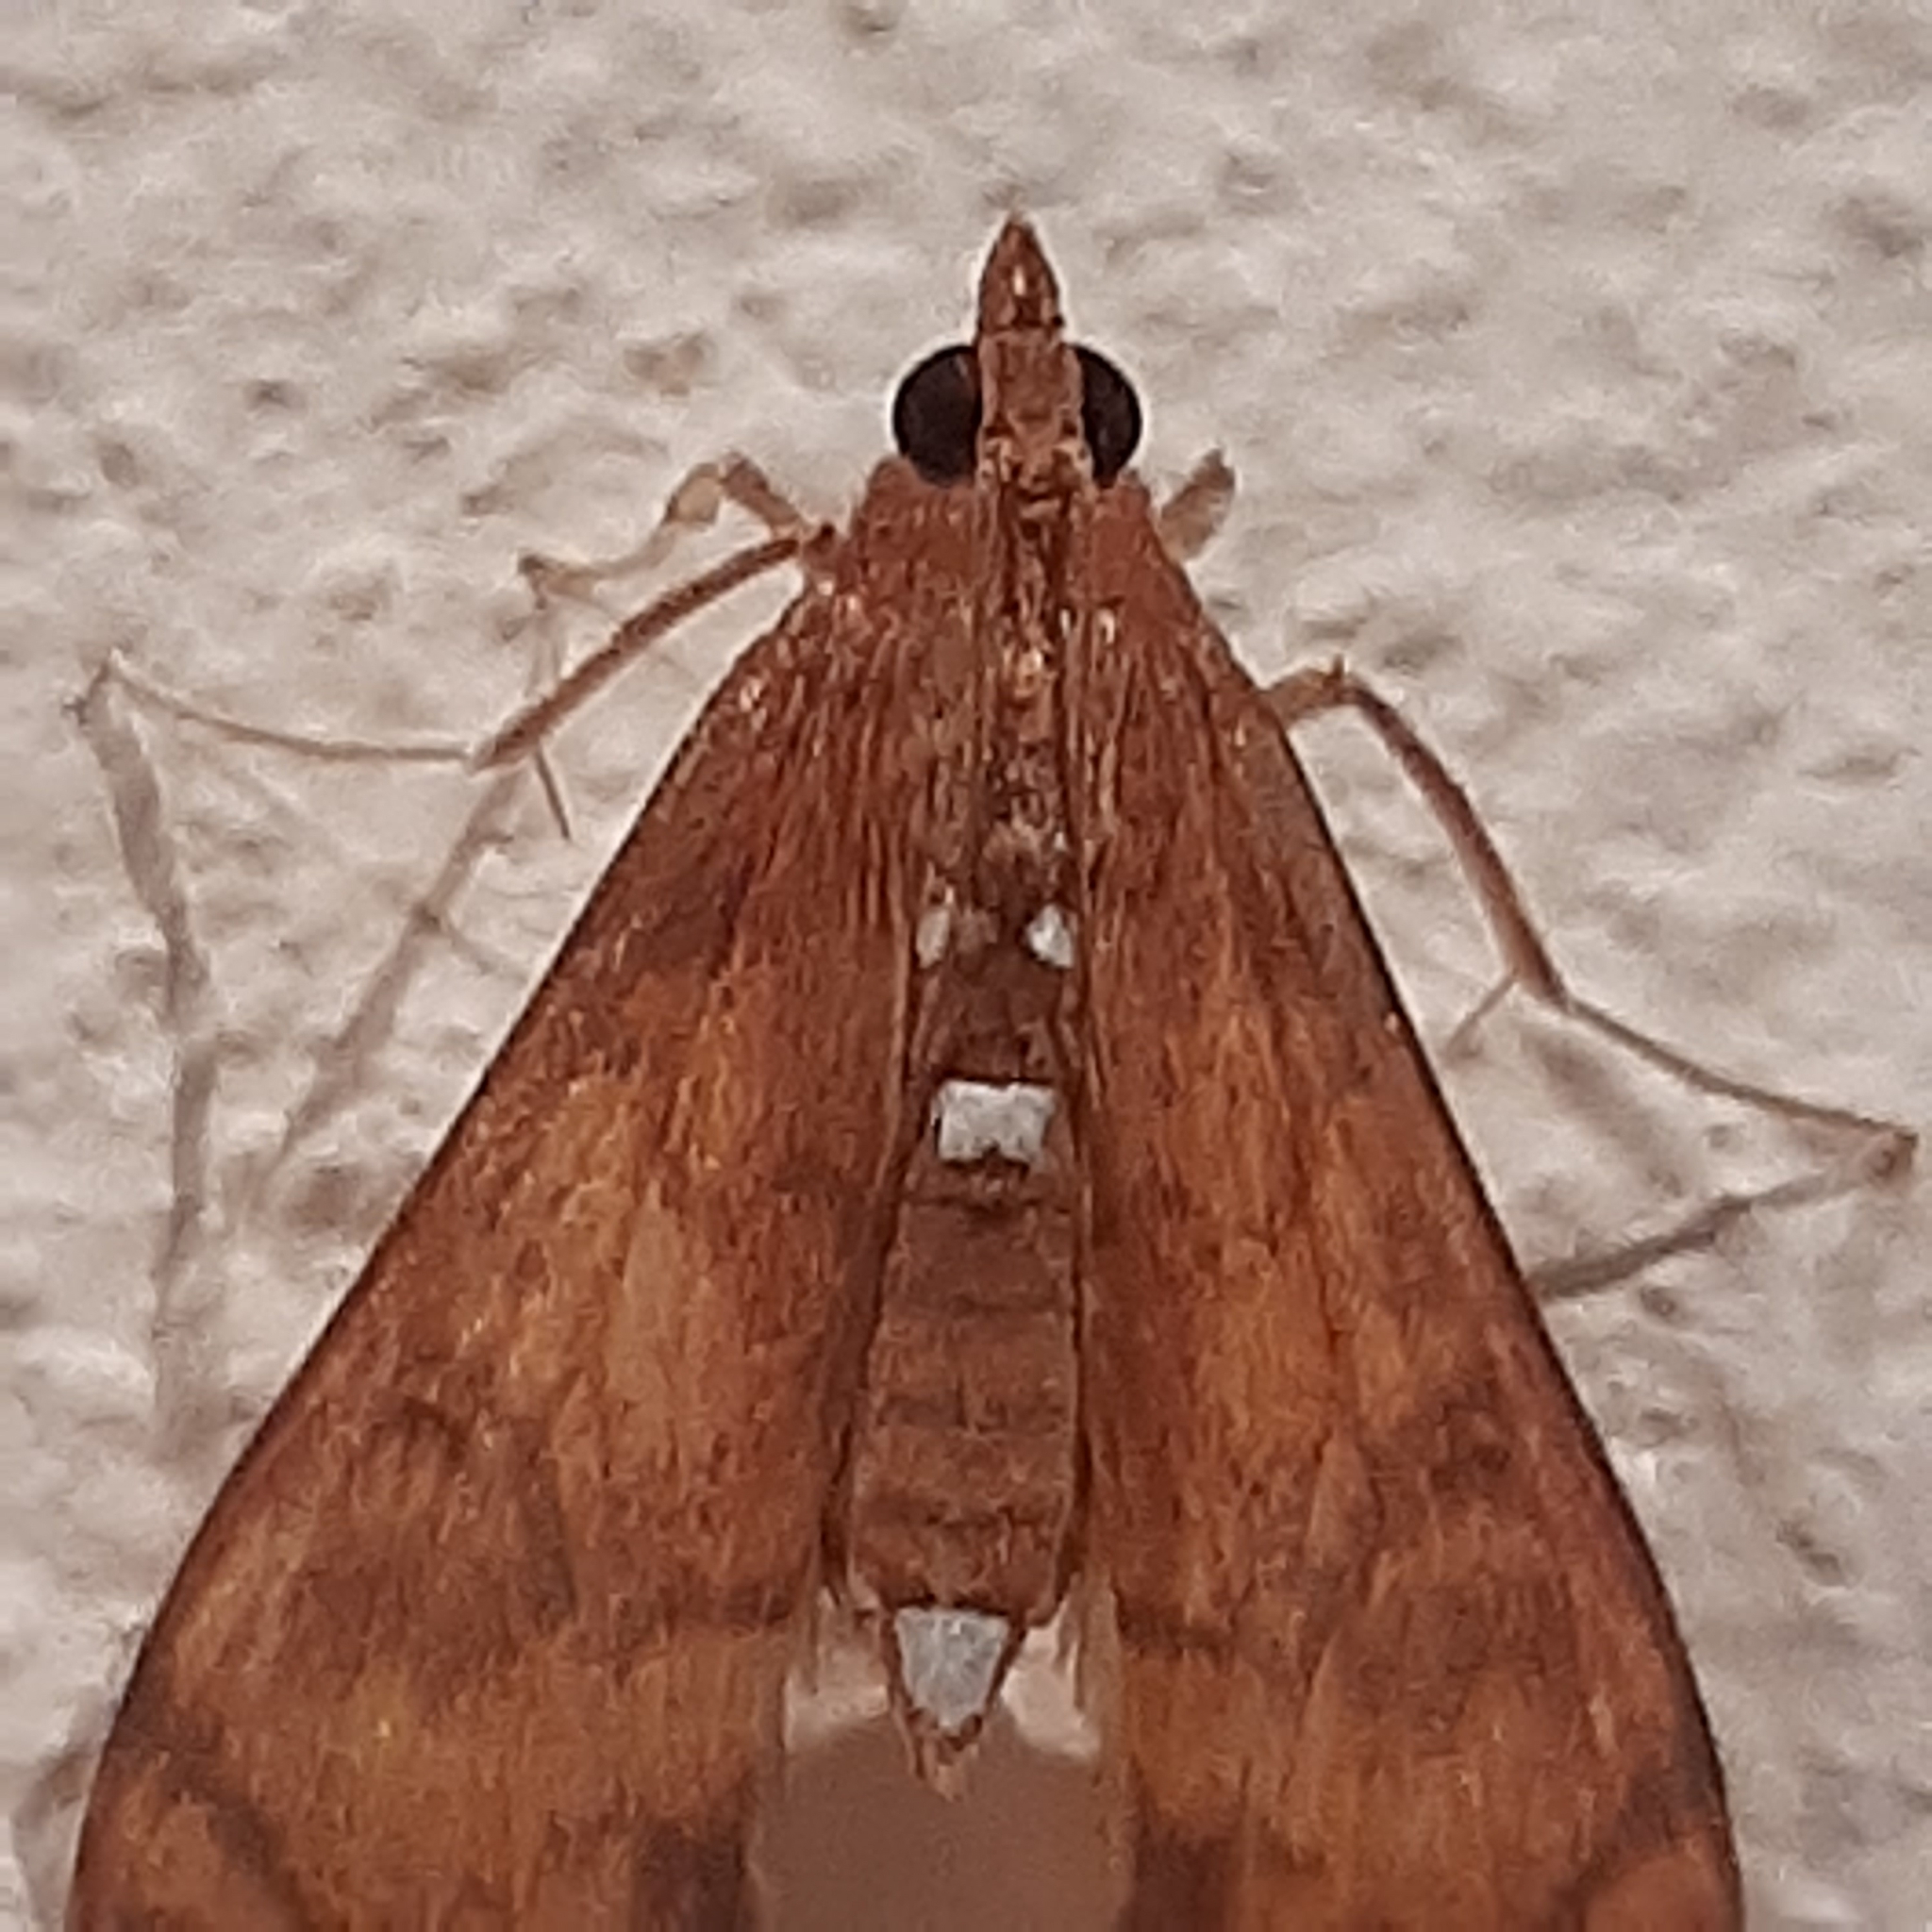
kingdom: Animalia
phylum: Arthropoda
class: Insecta
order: Lepidoptera
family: Crambidae
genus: Liopasia
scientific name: Liopasia ochracealis
